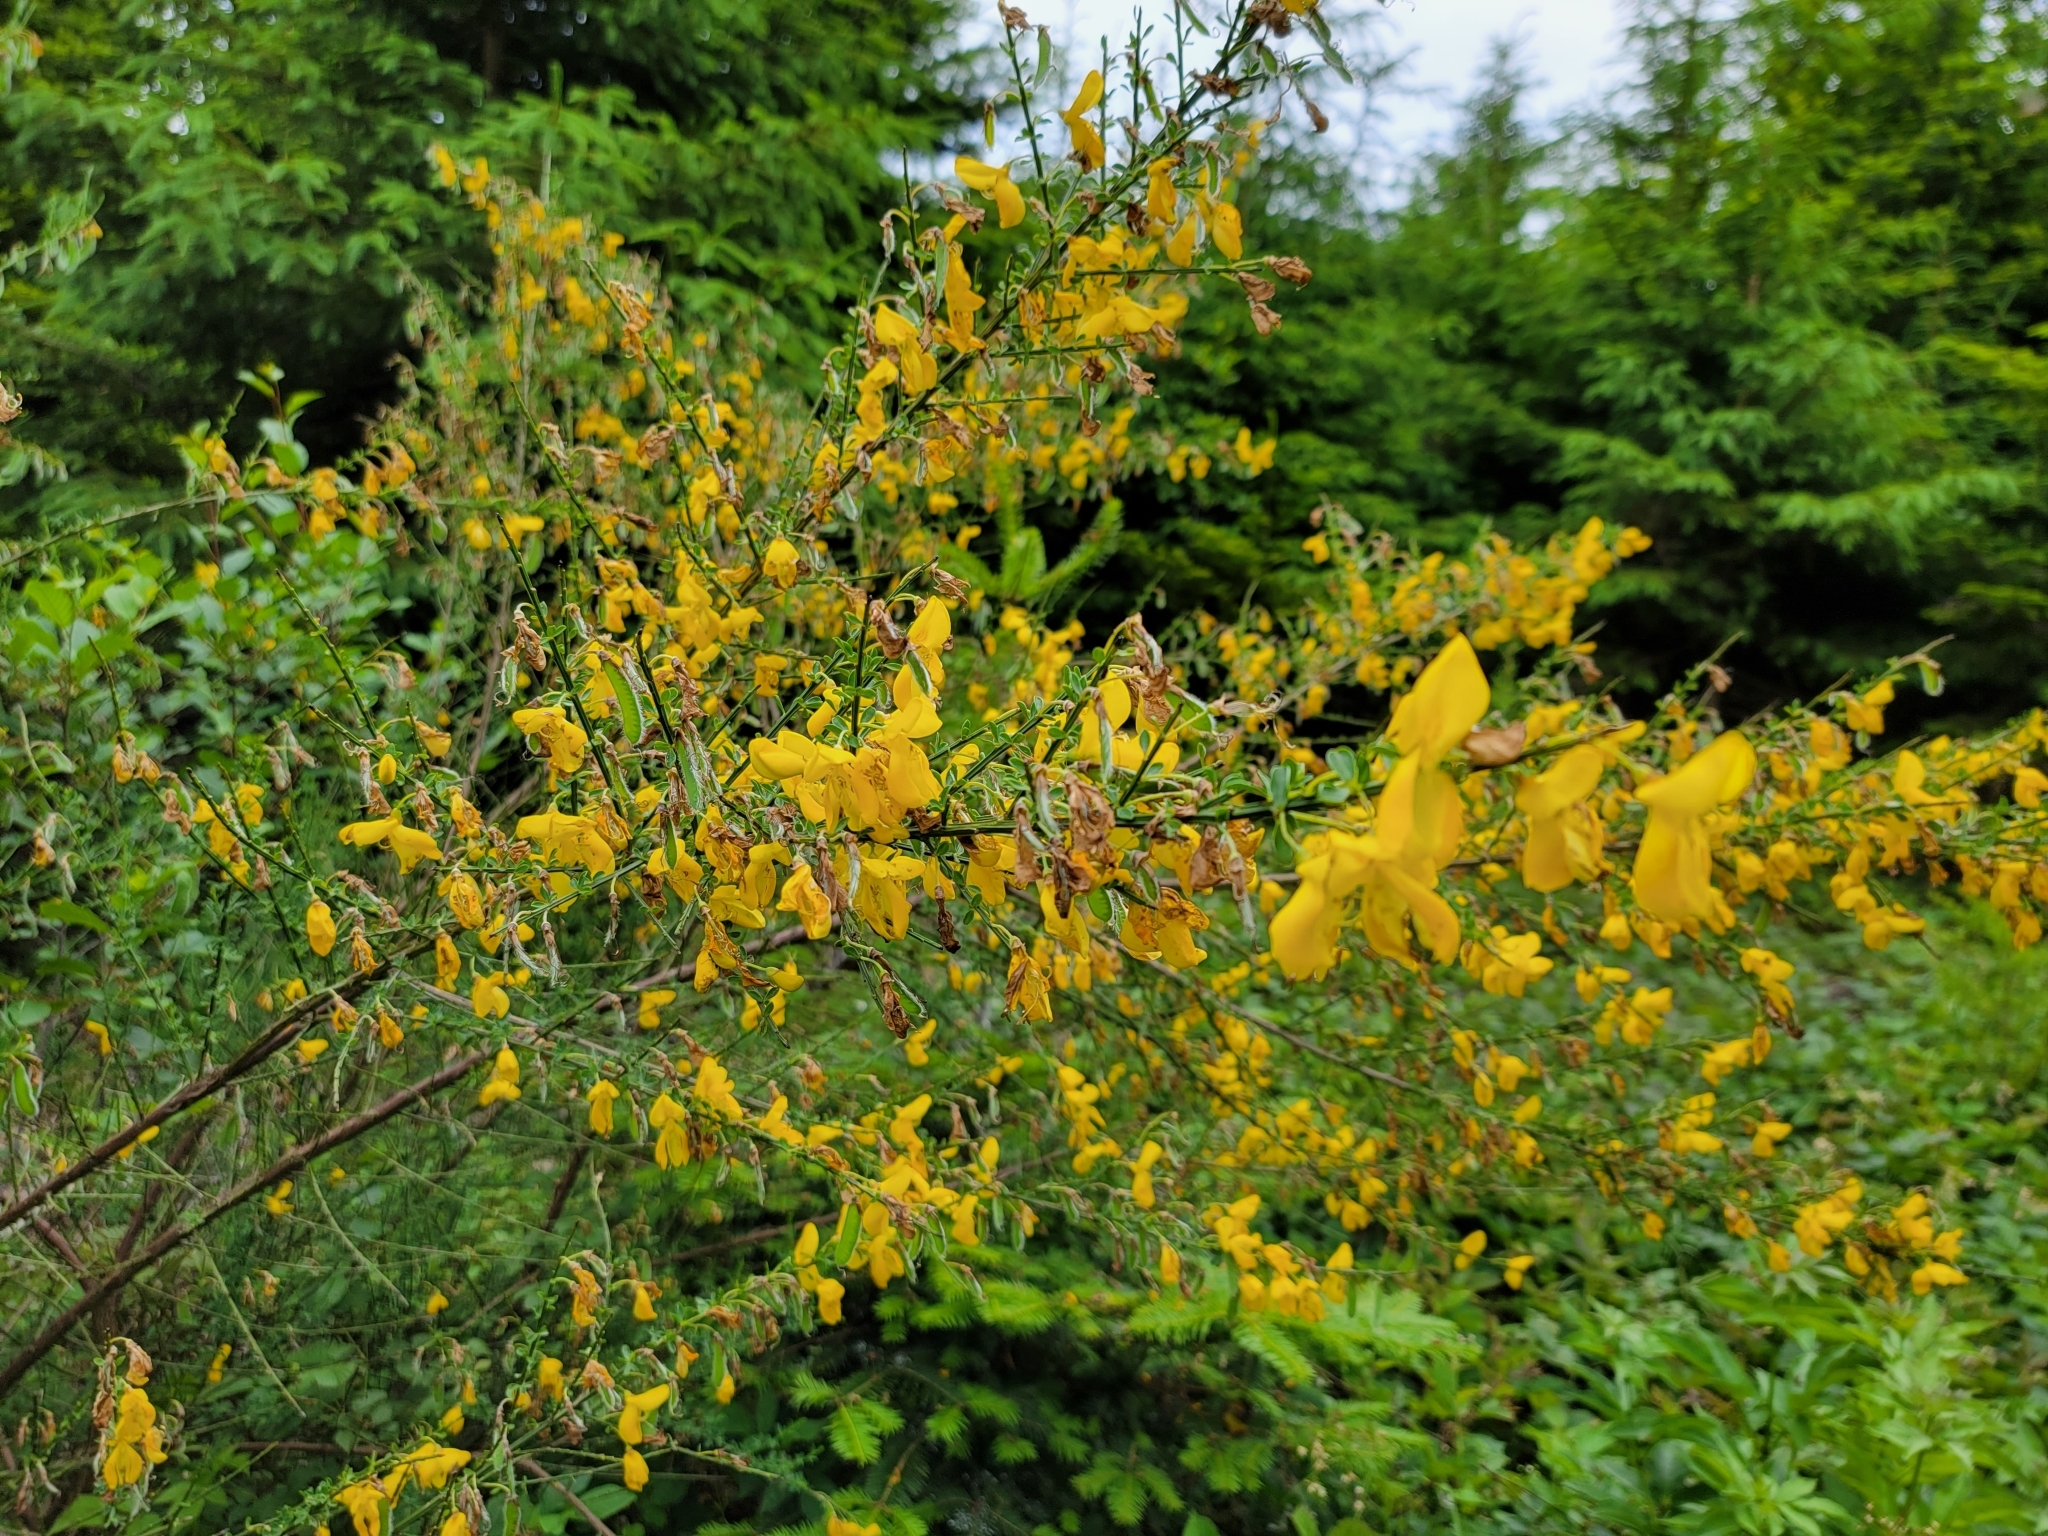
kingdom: Plantae
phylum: Tracheophyta
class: Magnoliopsida
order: Fabales
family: Fabaceae
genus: Cytisus
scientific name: Cytisus scoparius
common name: Scotch broom
